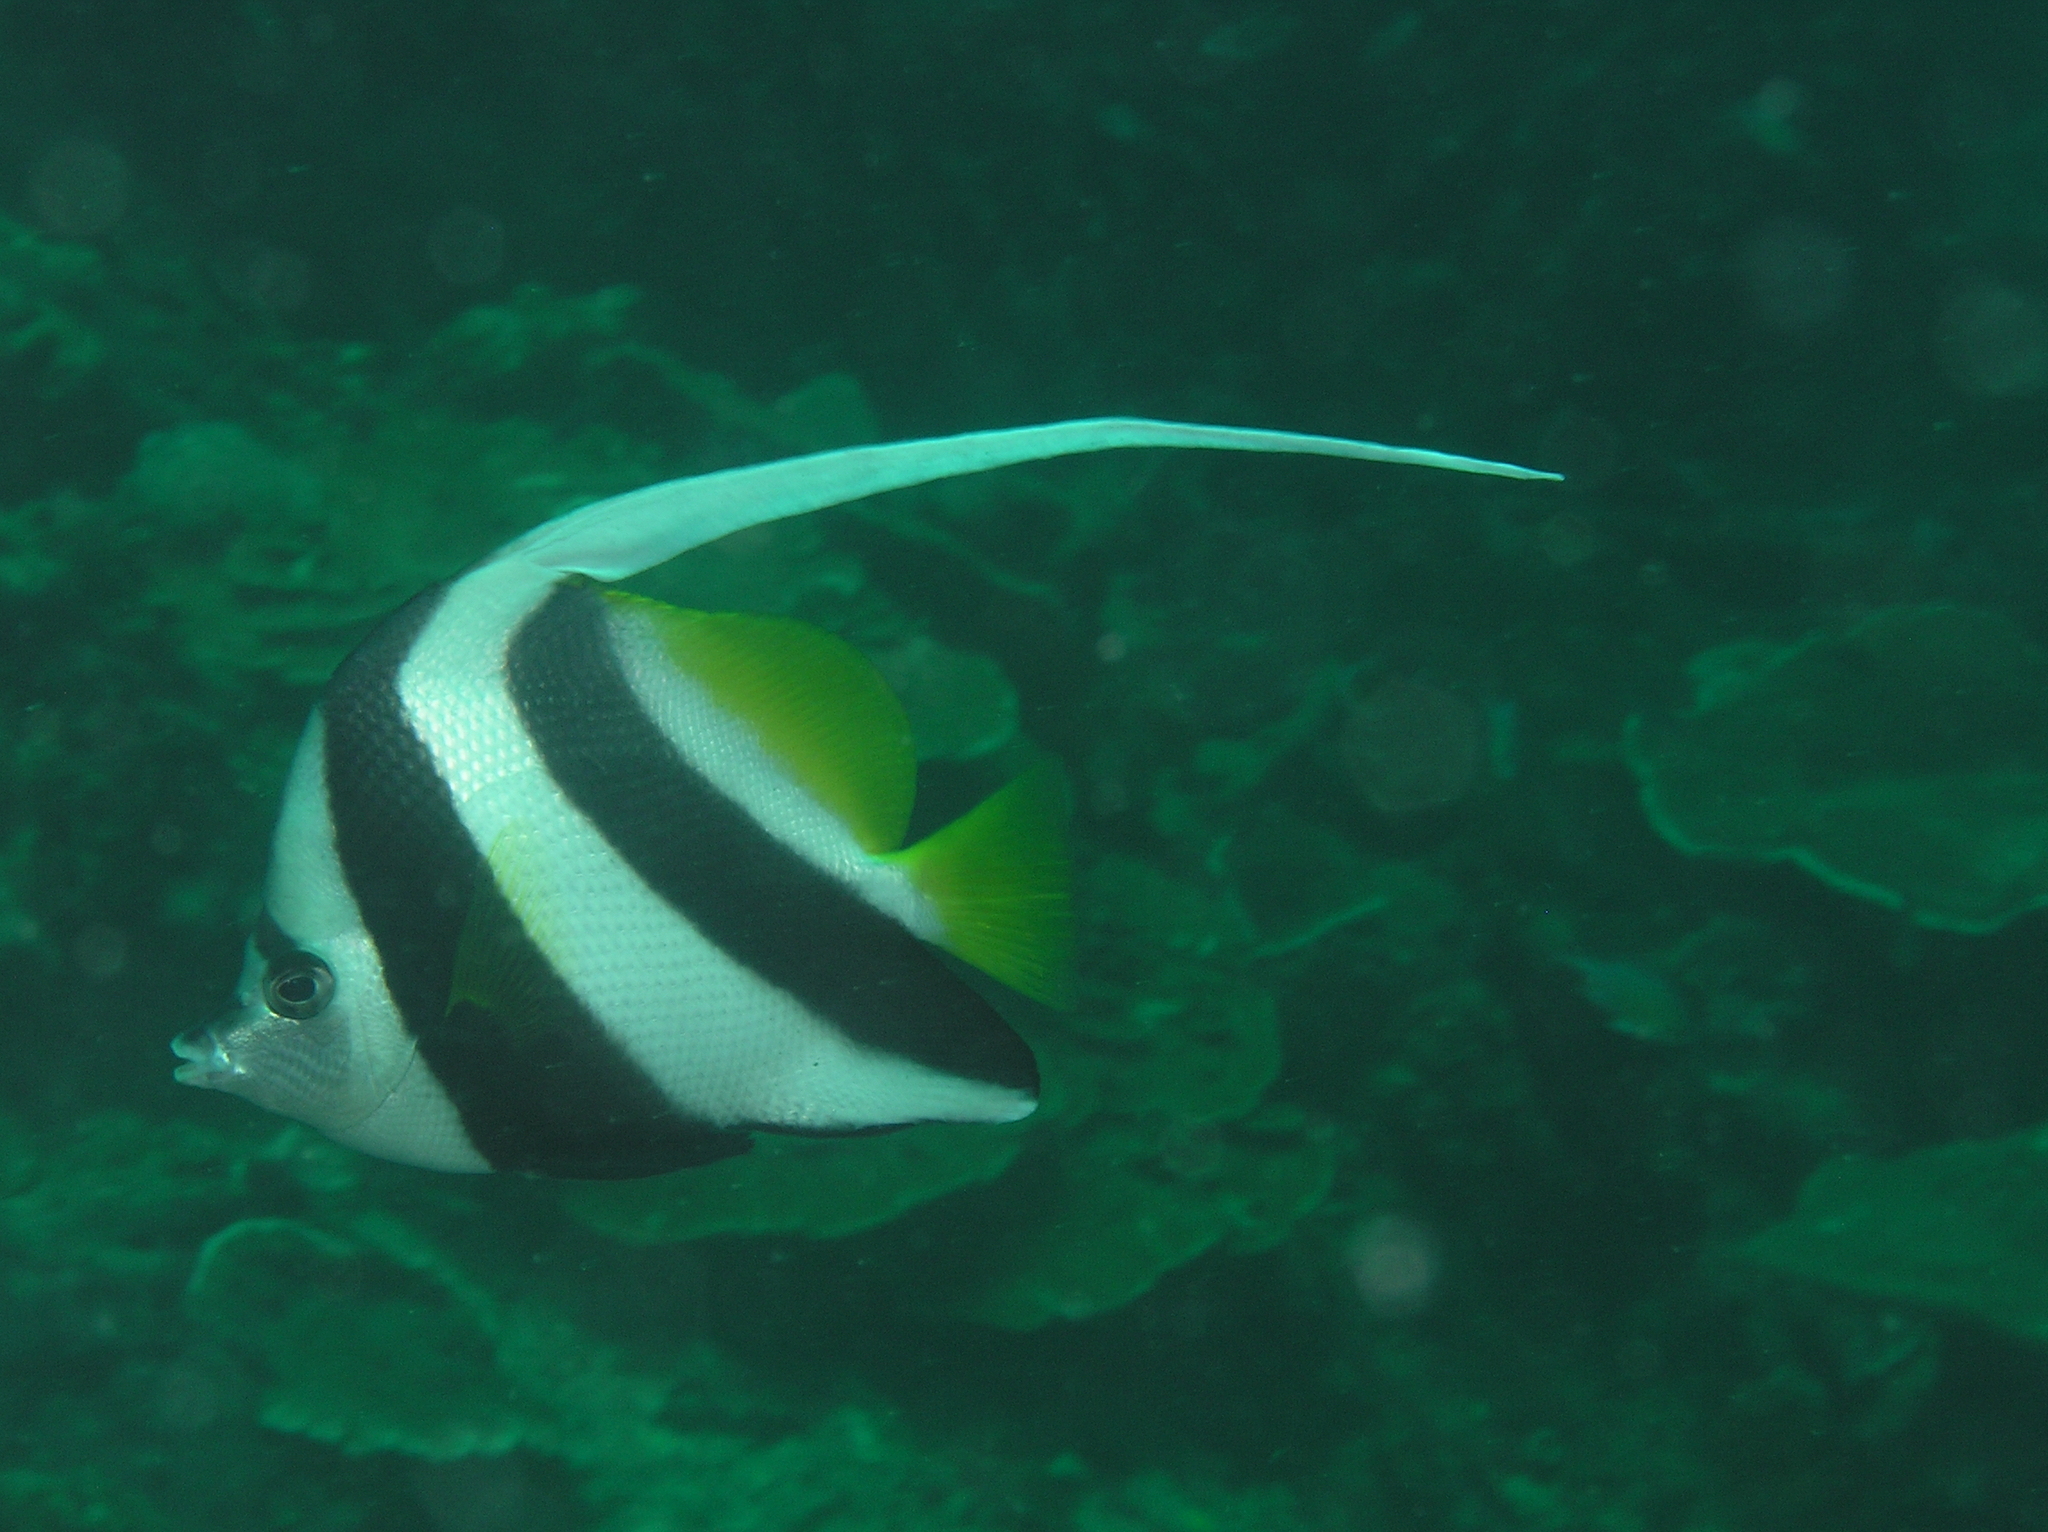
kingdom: Animalia
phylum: Chordata
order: Perciformes
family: Chaetodontidae
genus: Heniochus
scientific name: Heniochus acuminatus
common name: Pennant coralfish
